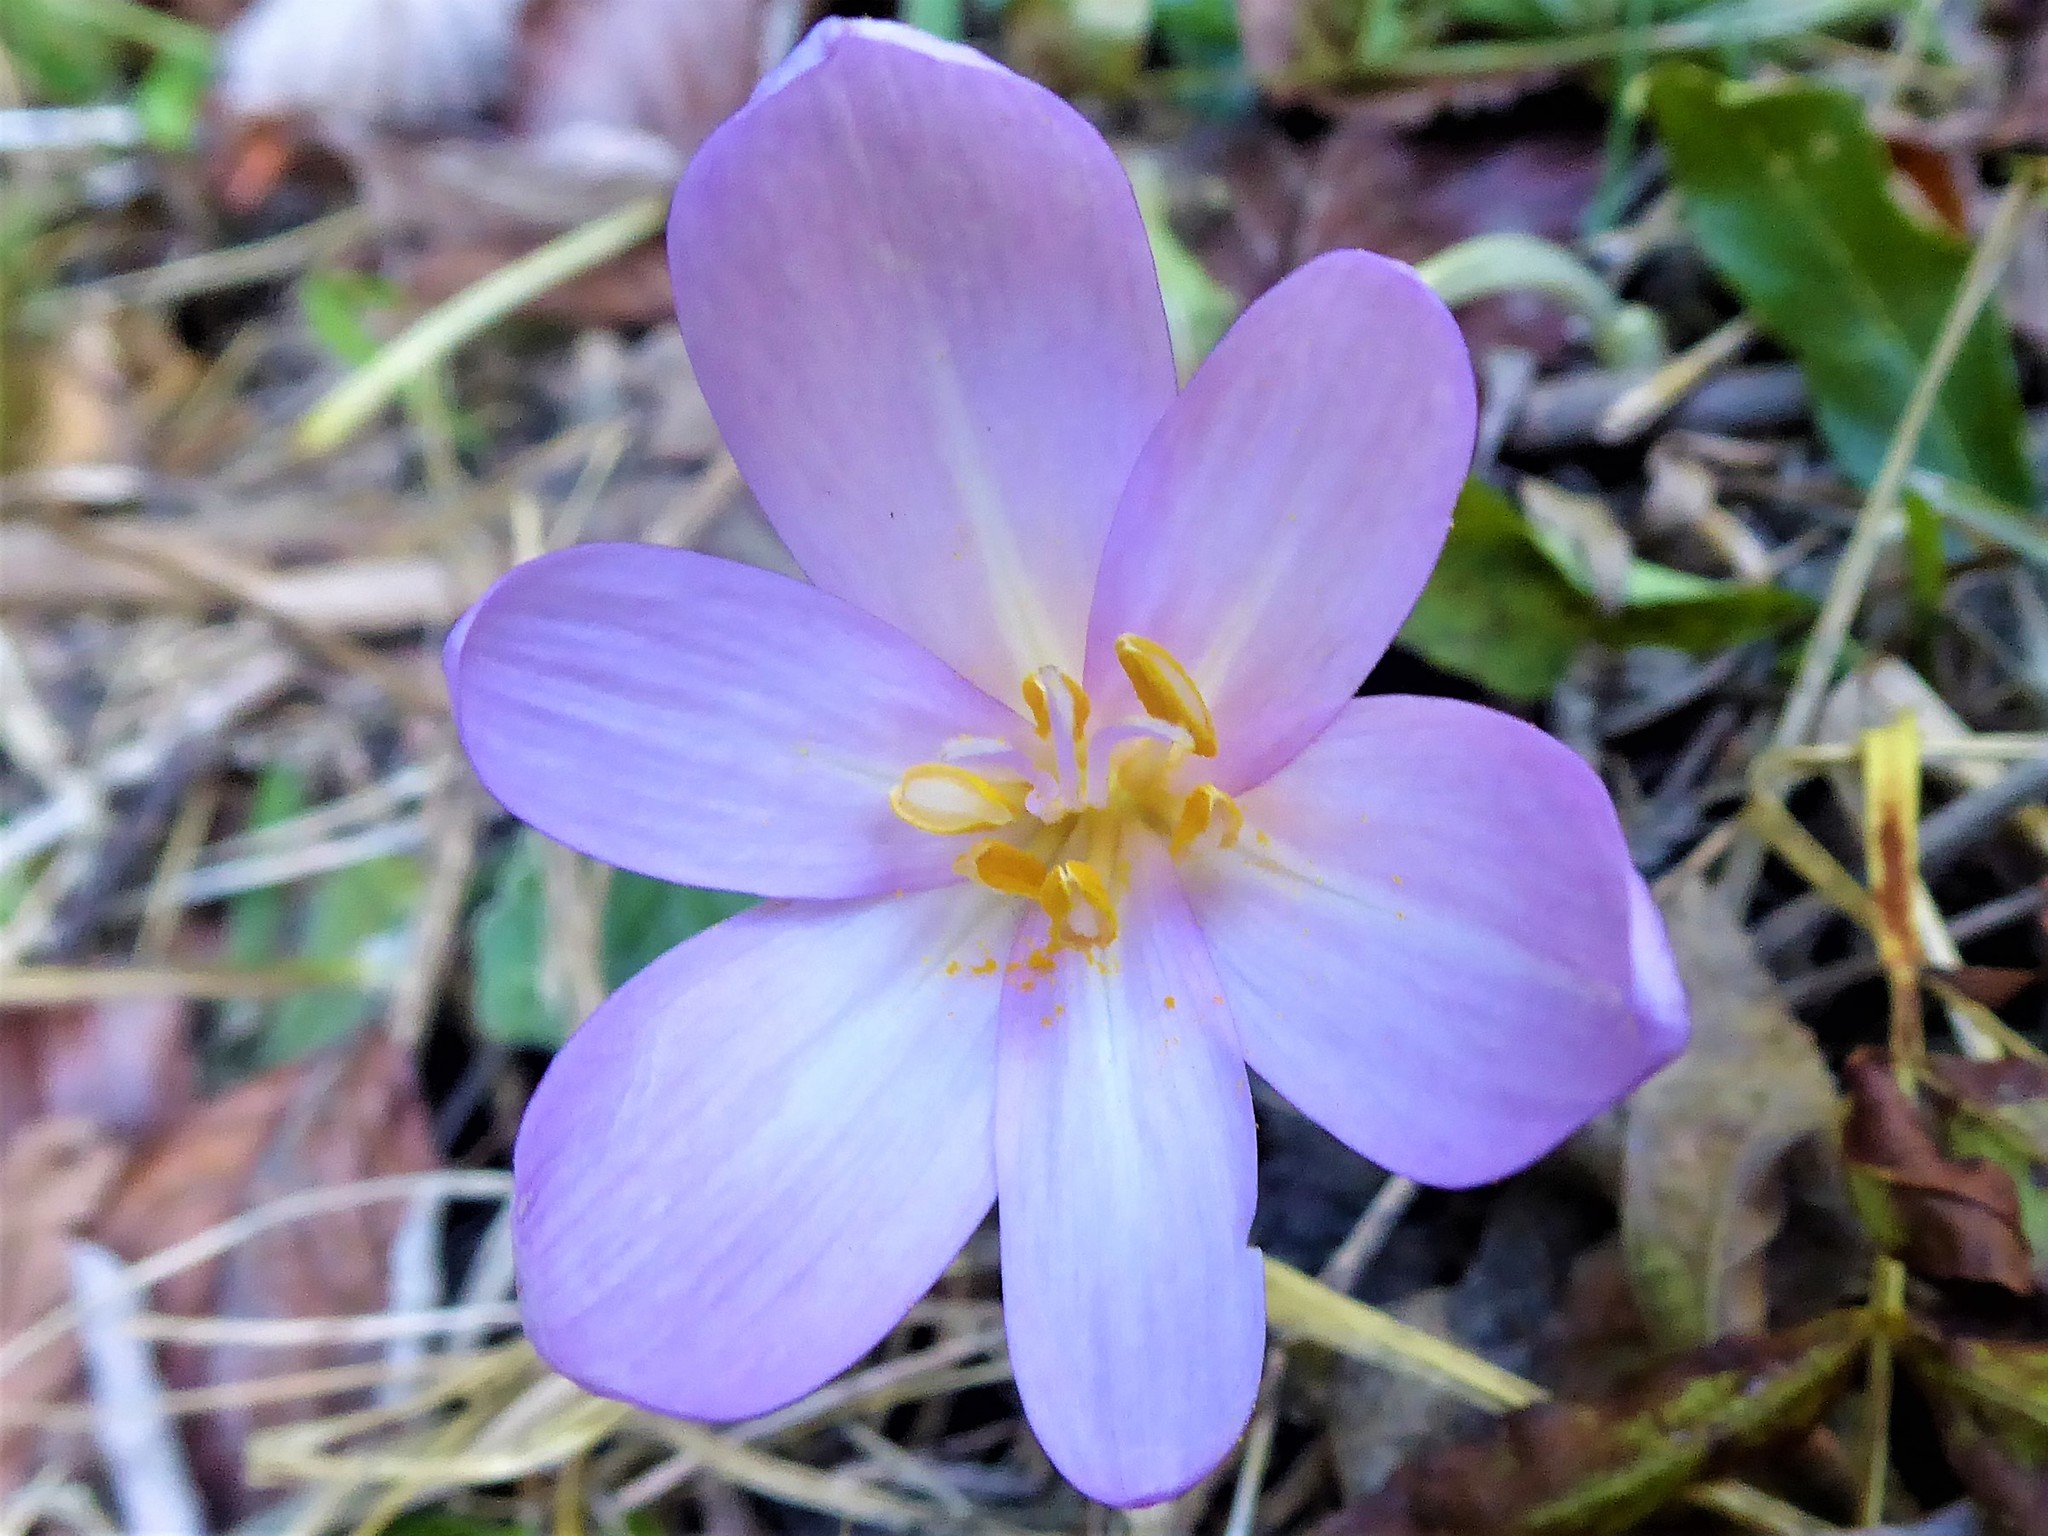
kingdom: Plantae
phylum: Tracheophyta
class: Liliopsida
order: Liliales
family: Colchicaceae
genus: Colchicum
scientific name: Colchicum autumnale
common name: Autumn crocus
